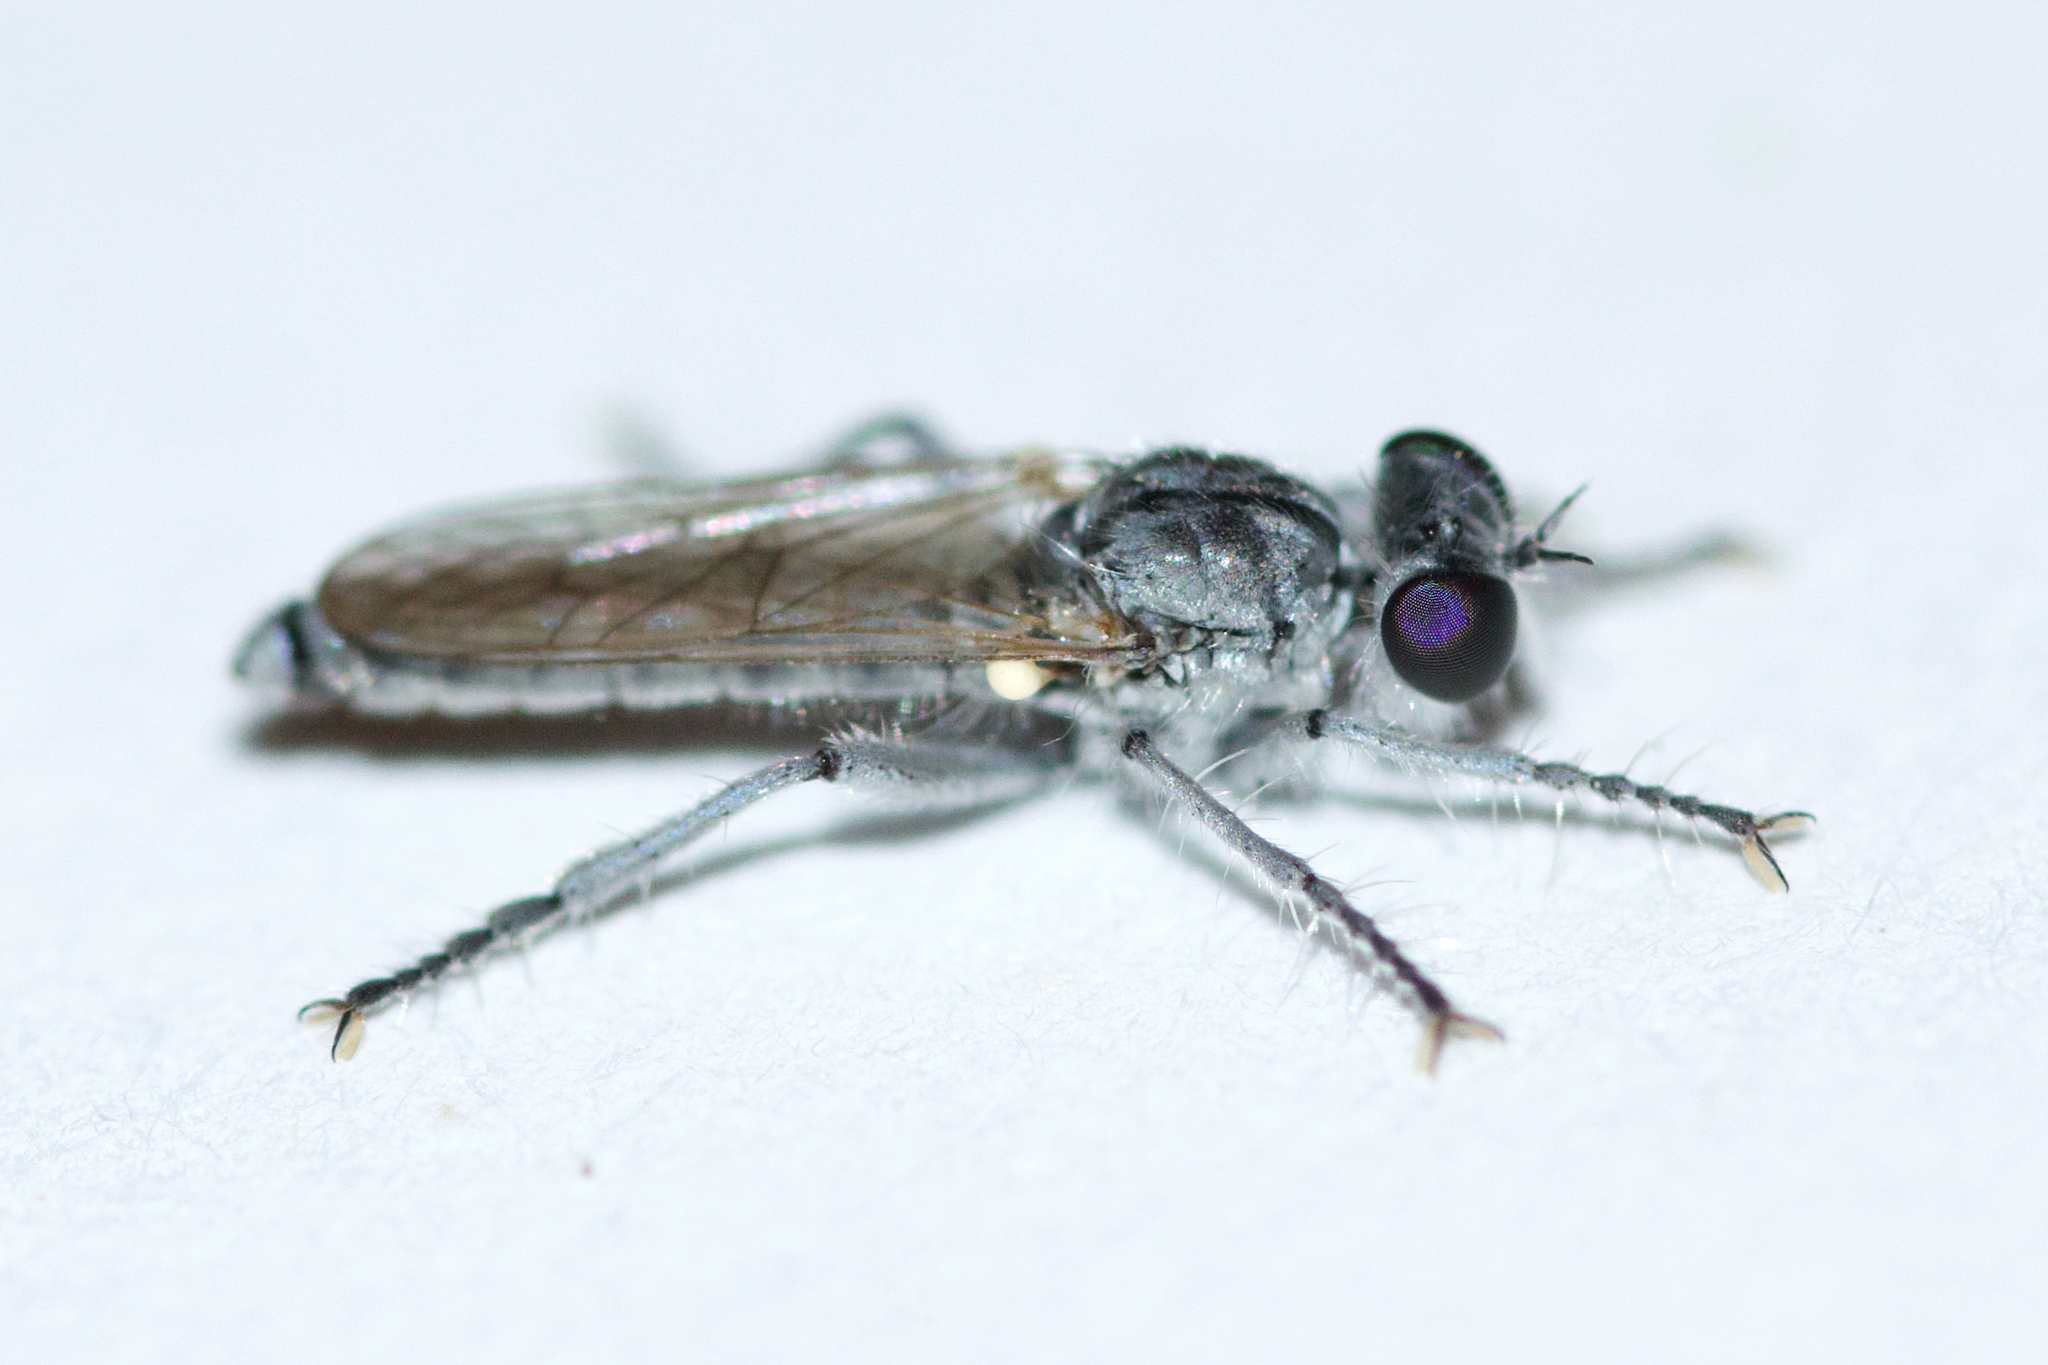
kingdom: Animalia
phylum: Arthropoda
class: Insecta
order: Diptera
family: Asilidae
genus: Stichopogon
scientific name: Stichopogon argenteus
